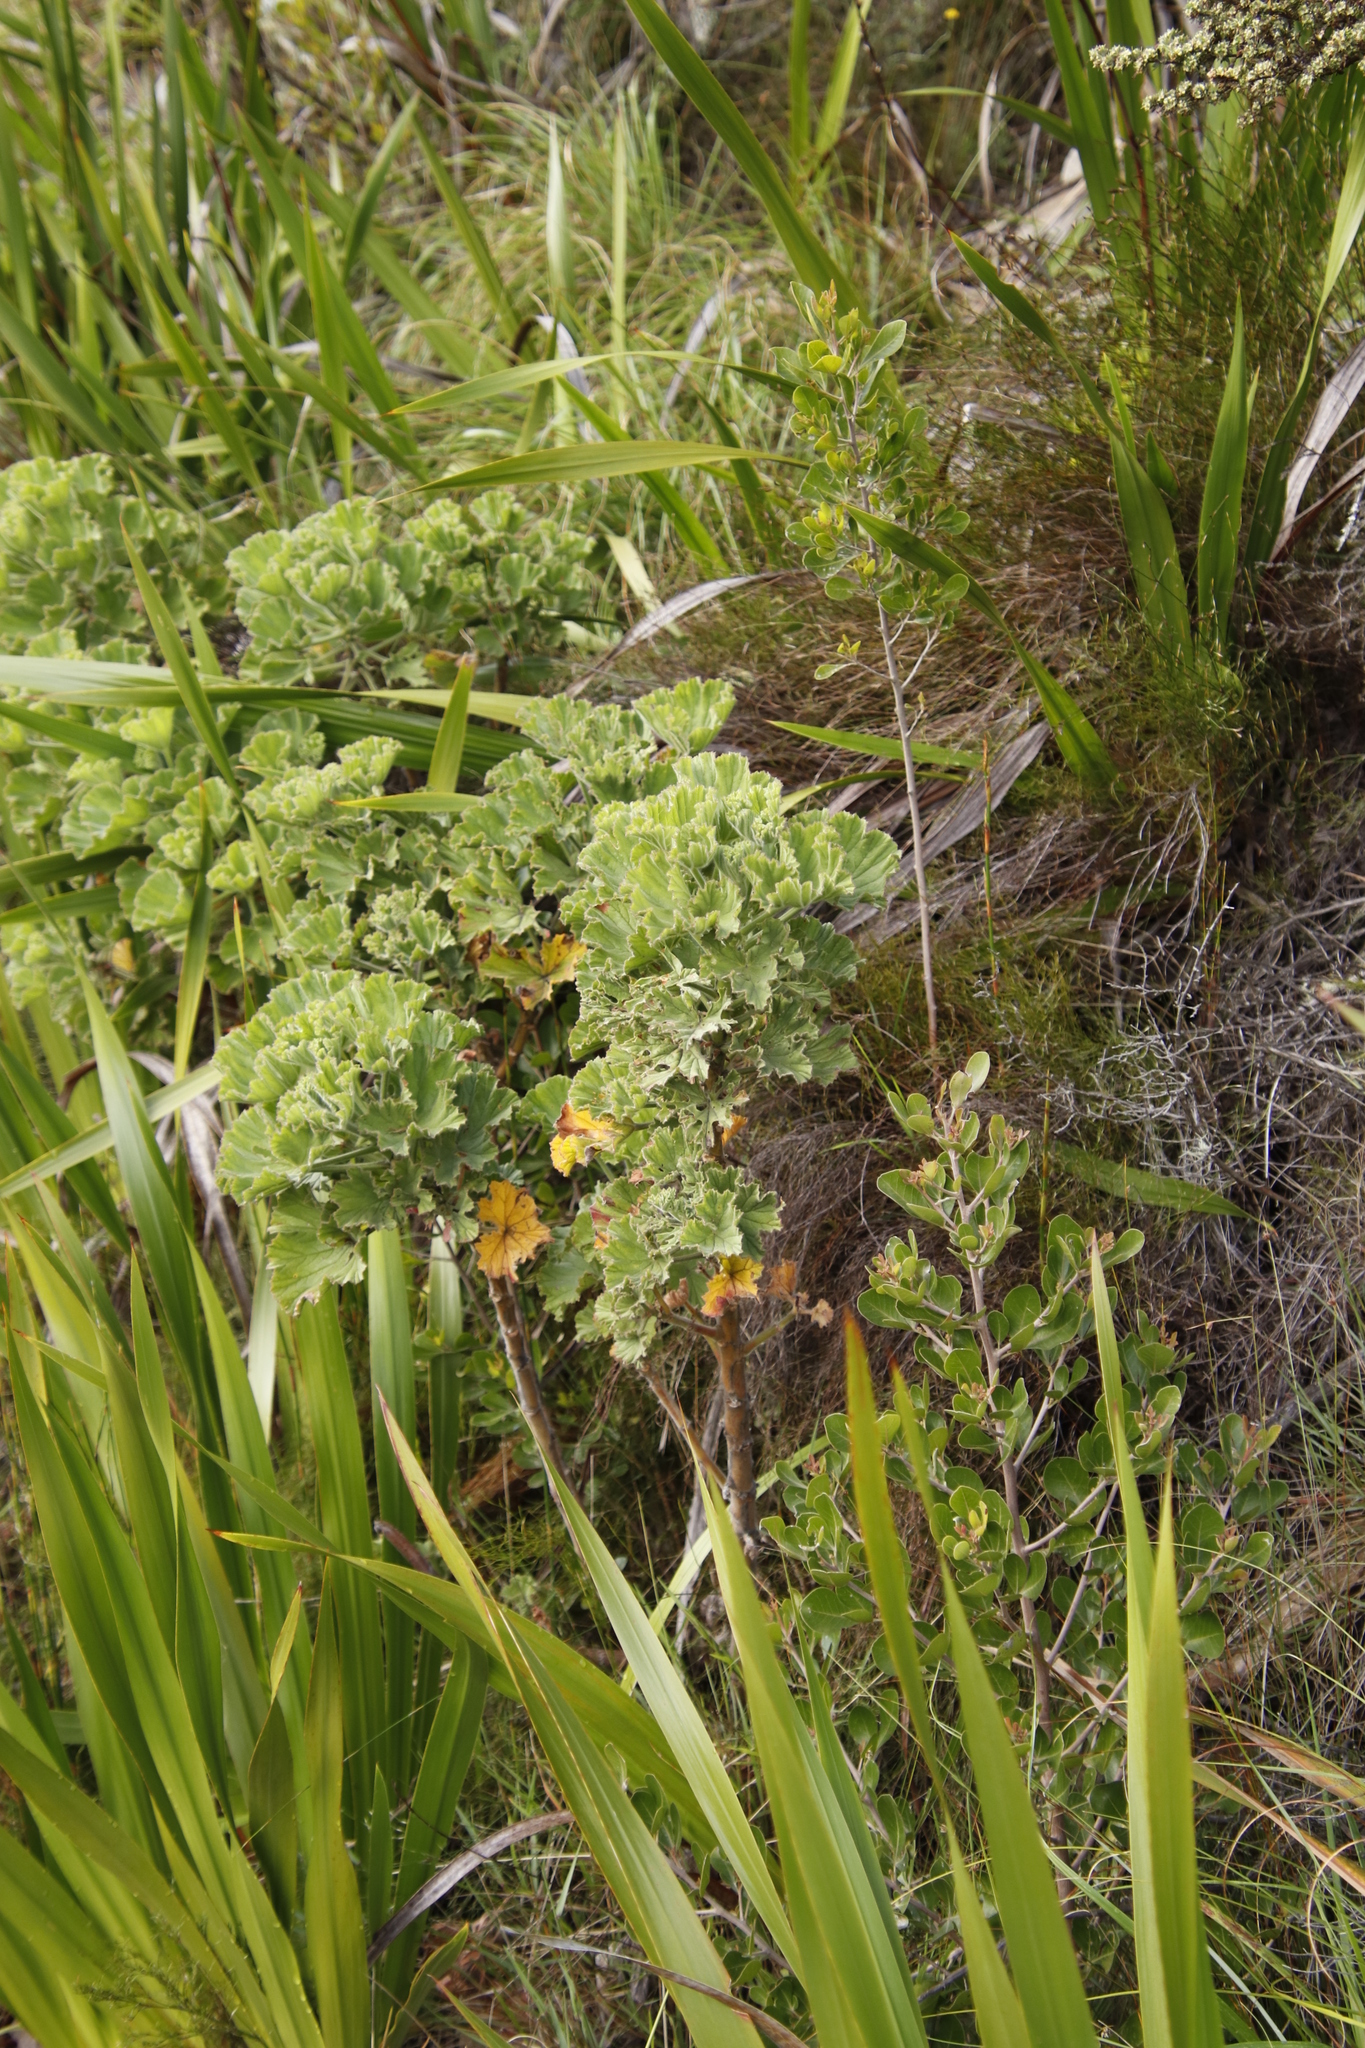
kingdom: Plantae
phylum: Tracheophyta
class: Magnoliopsida
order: Geraniales
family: Geraniaceae
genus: Pelargonium
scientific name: Pelargonium cucullatum
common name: Tree pelargonium
